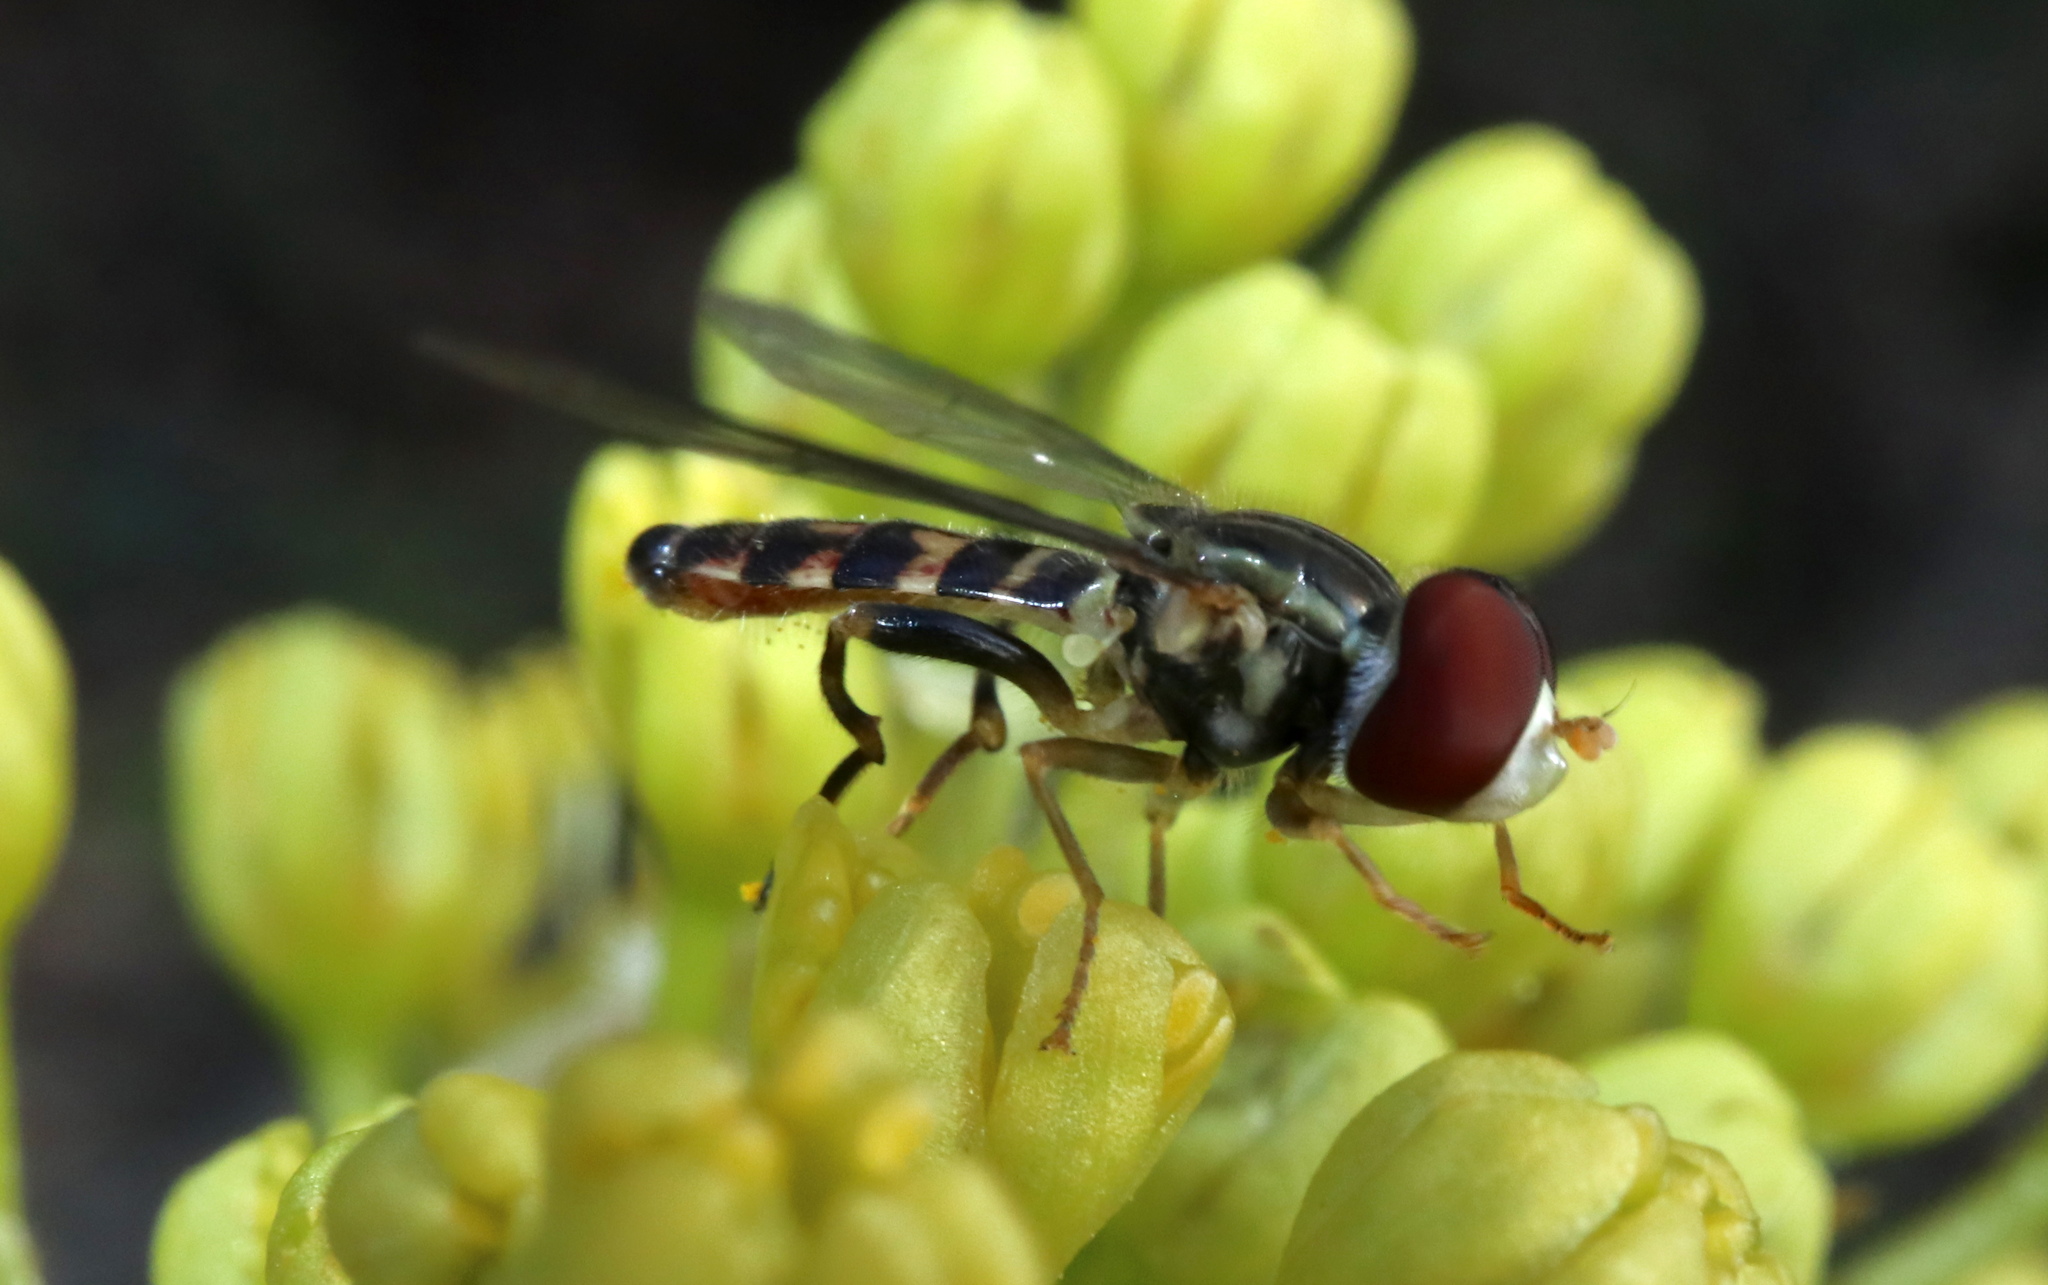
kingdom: Animalia
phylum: Arthropoda
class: Insecta
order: Diptera
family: Syrphidae
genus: Toxomerus
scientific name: Toxomerus geminatus
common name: Eastern calligrapher
